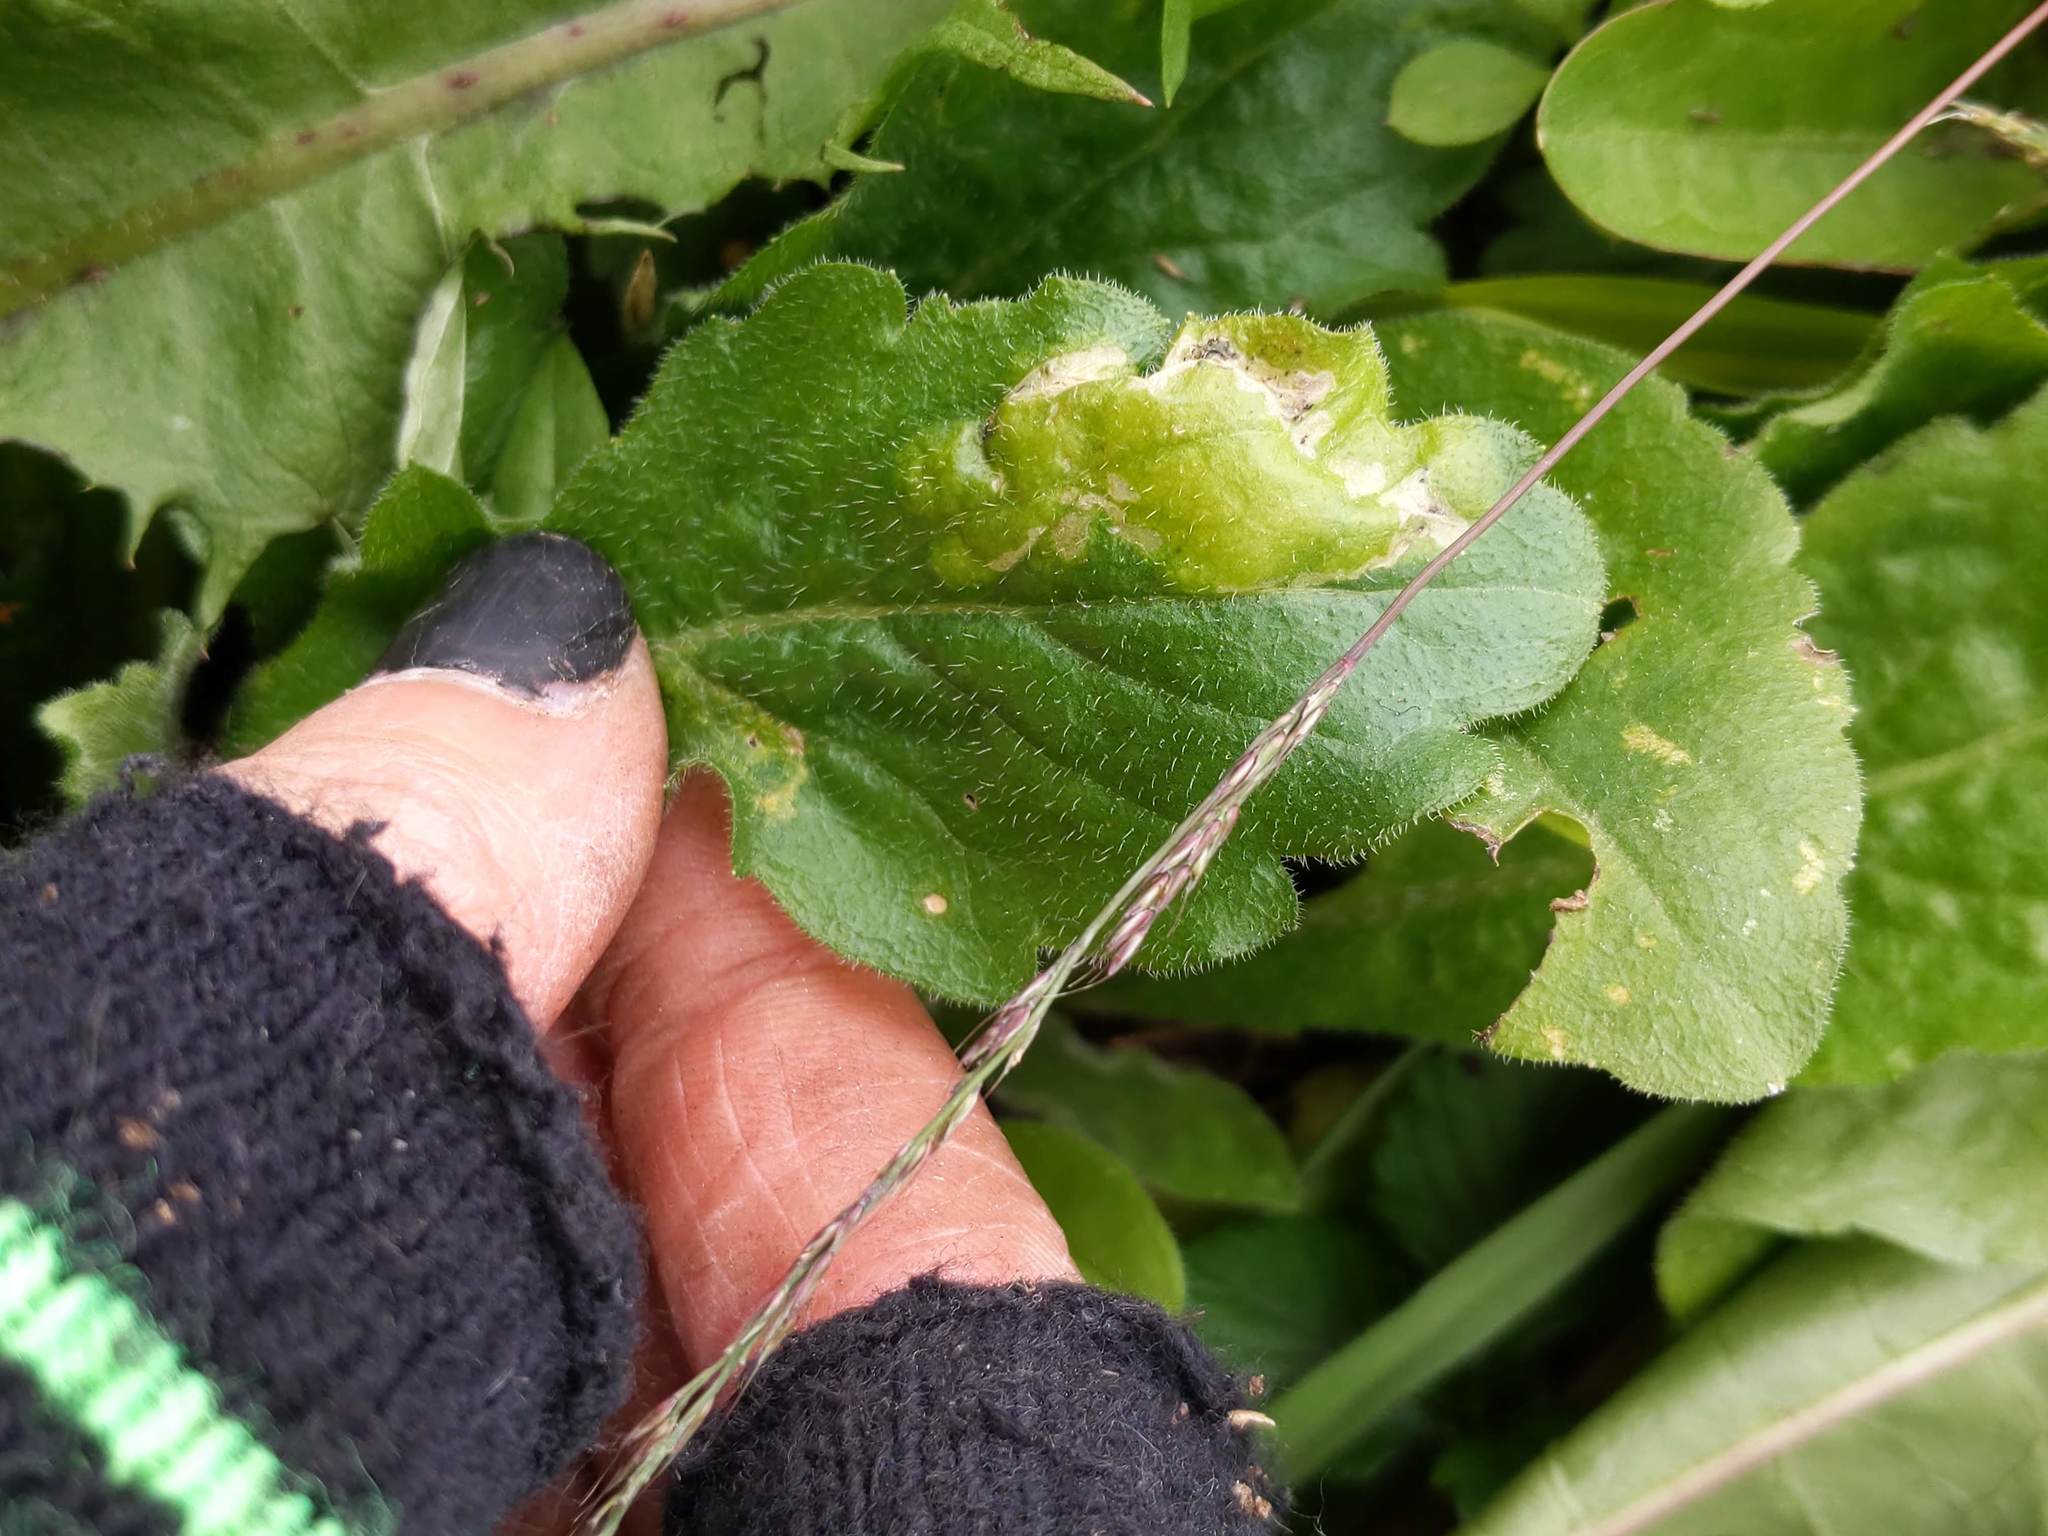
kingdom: Animalia
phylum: Arthropoda
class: Insecta
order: Lepidoptera
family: Gracillariidae
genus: Parectopa
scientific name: Parectopa plantaginisella
